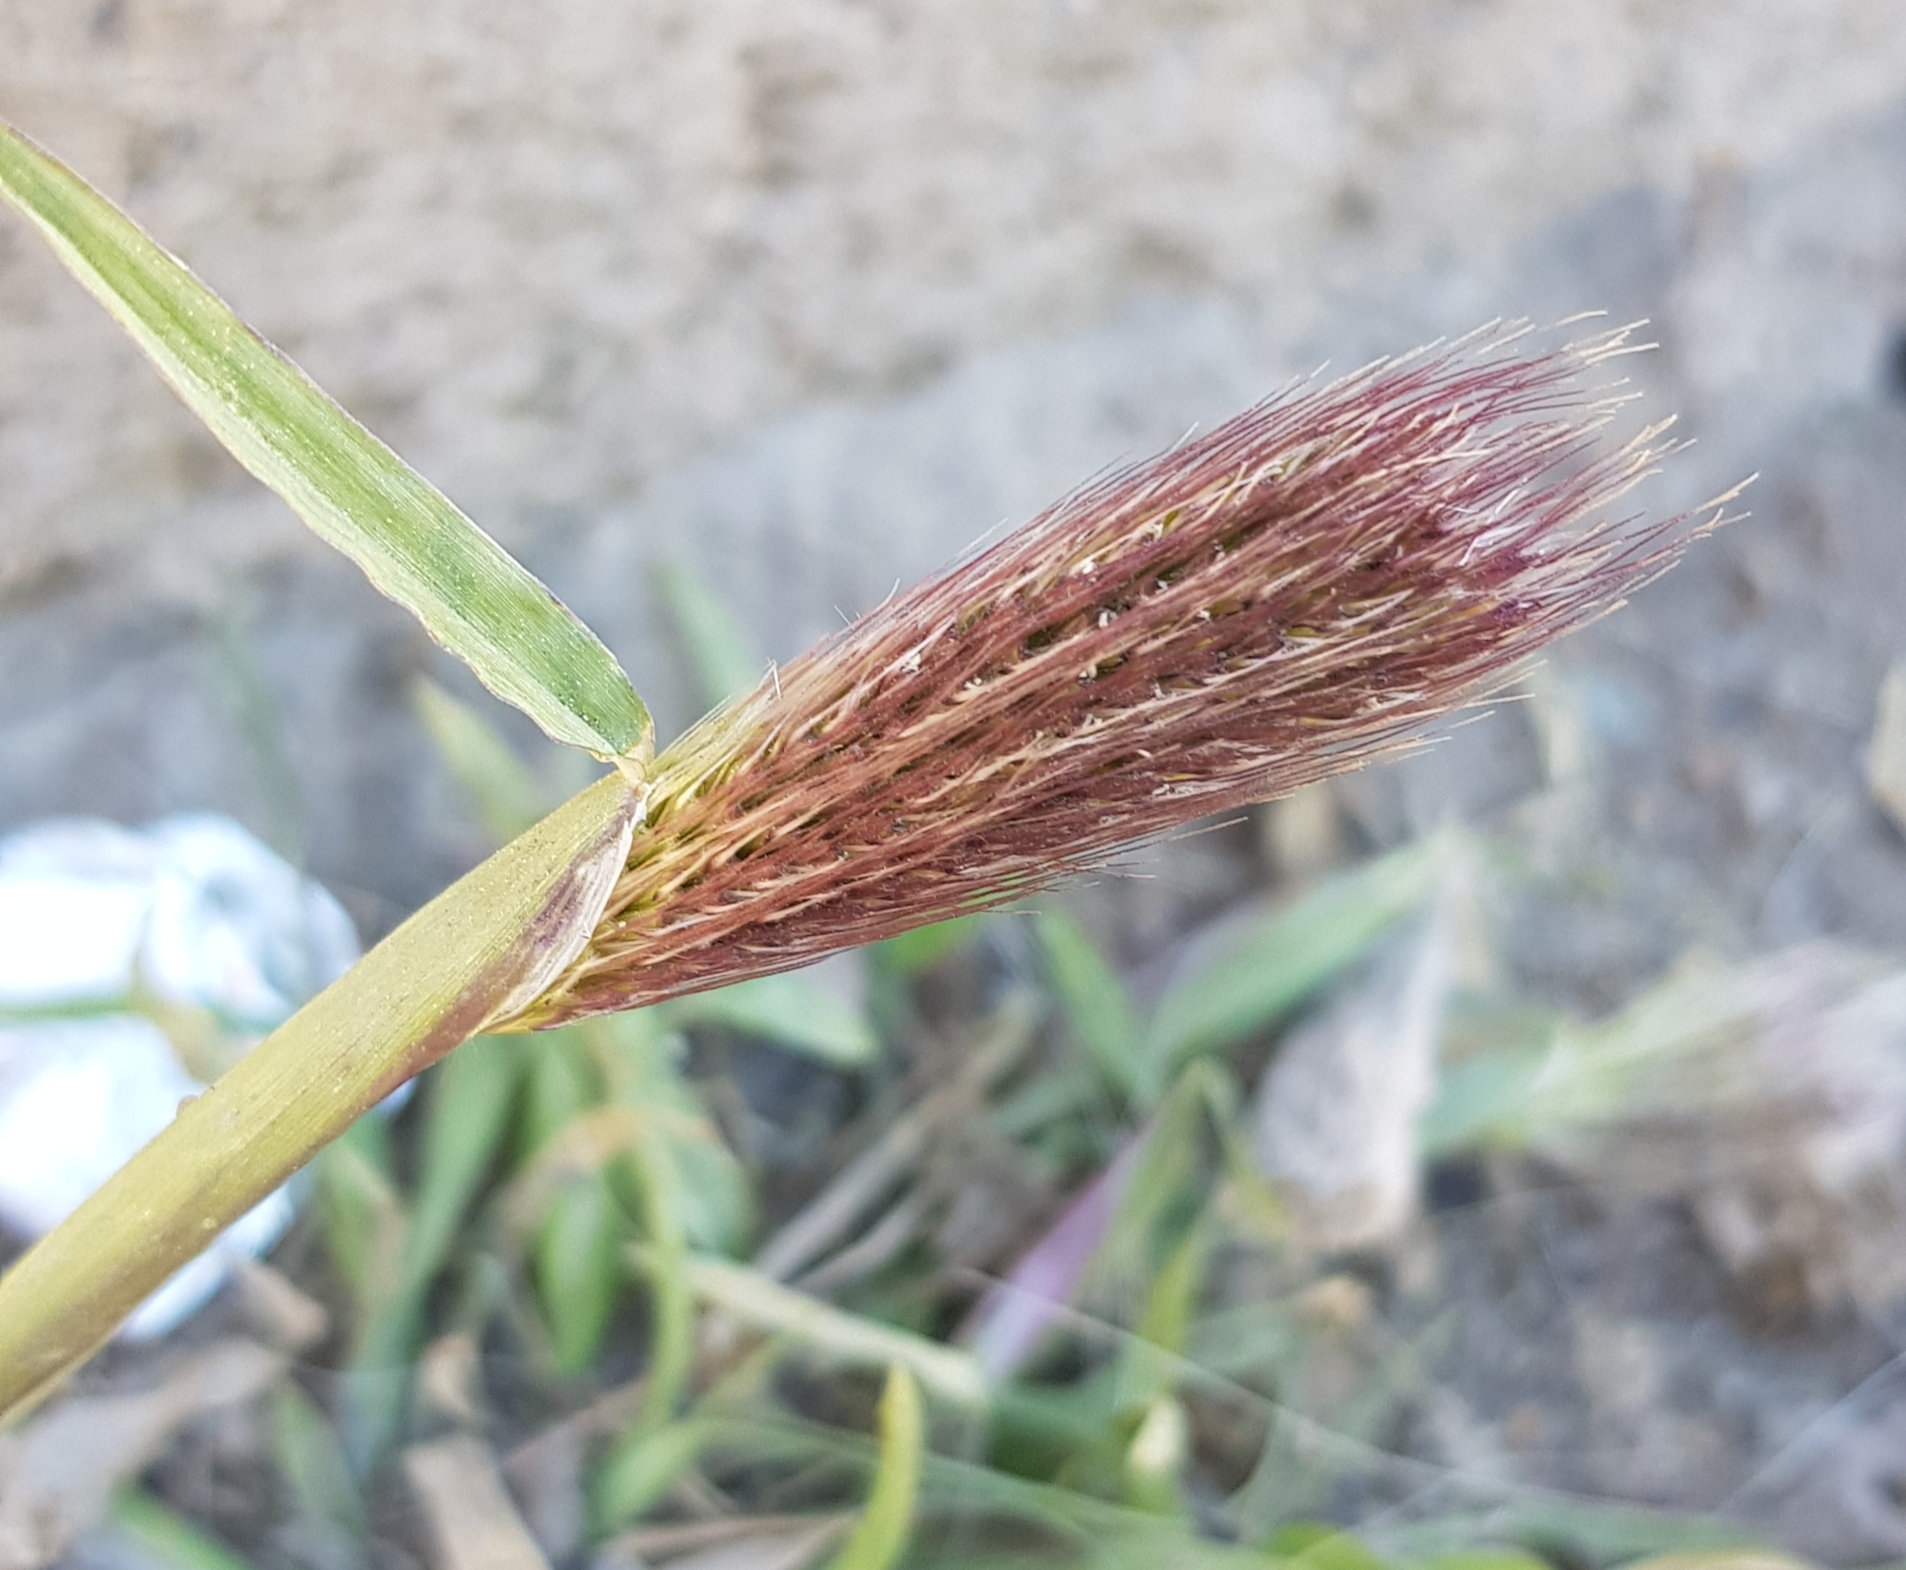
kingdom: Plantae
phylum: Tracheophyta
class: Liliopsida
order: Poales
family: Poaceae
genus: Chloris
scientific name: Chloris virgata
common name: Feathery rhodes-grass
